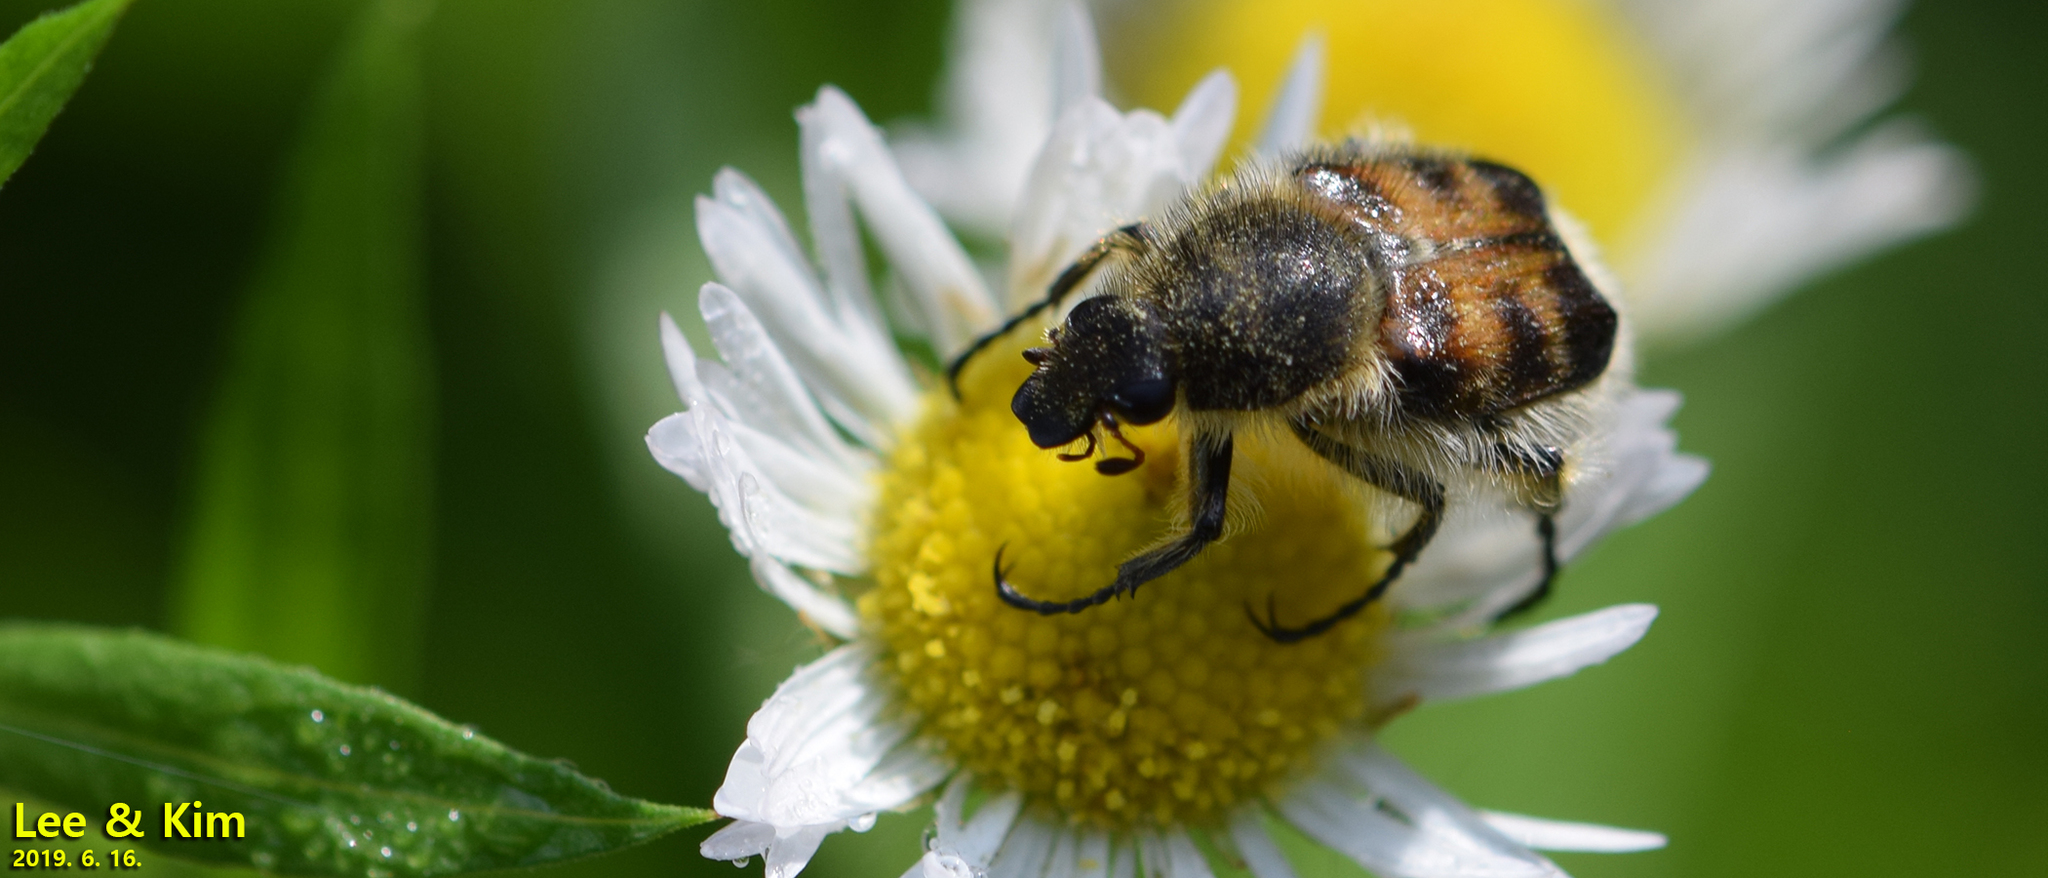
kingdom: Animalia
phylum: Arthropoda
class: Insecta
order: Coleoptera
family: Scarabaeidae
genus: Lasiotrichius
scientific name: Lasiotrichius succinctus
